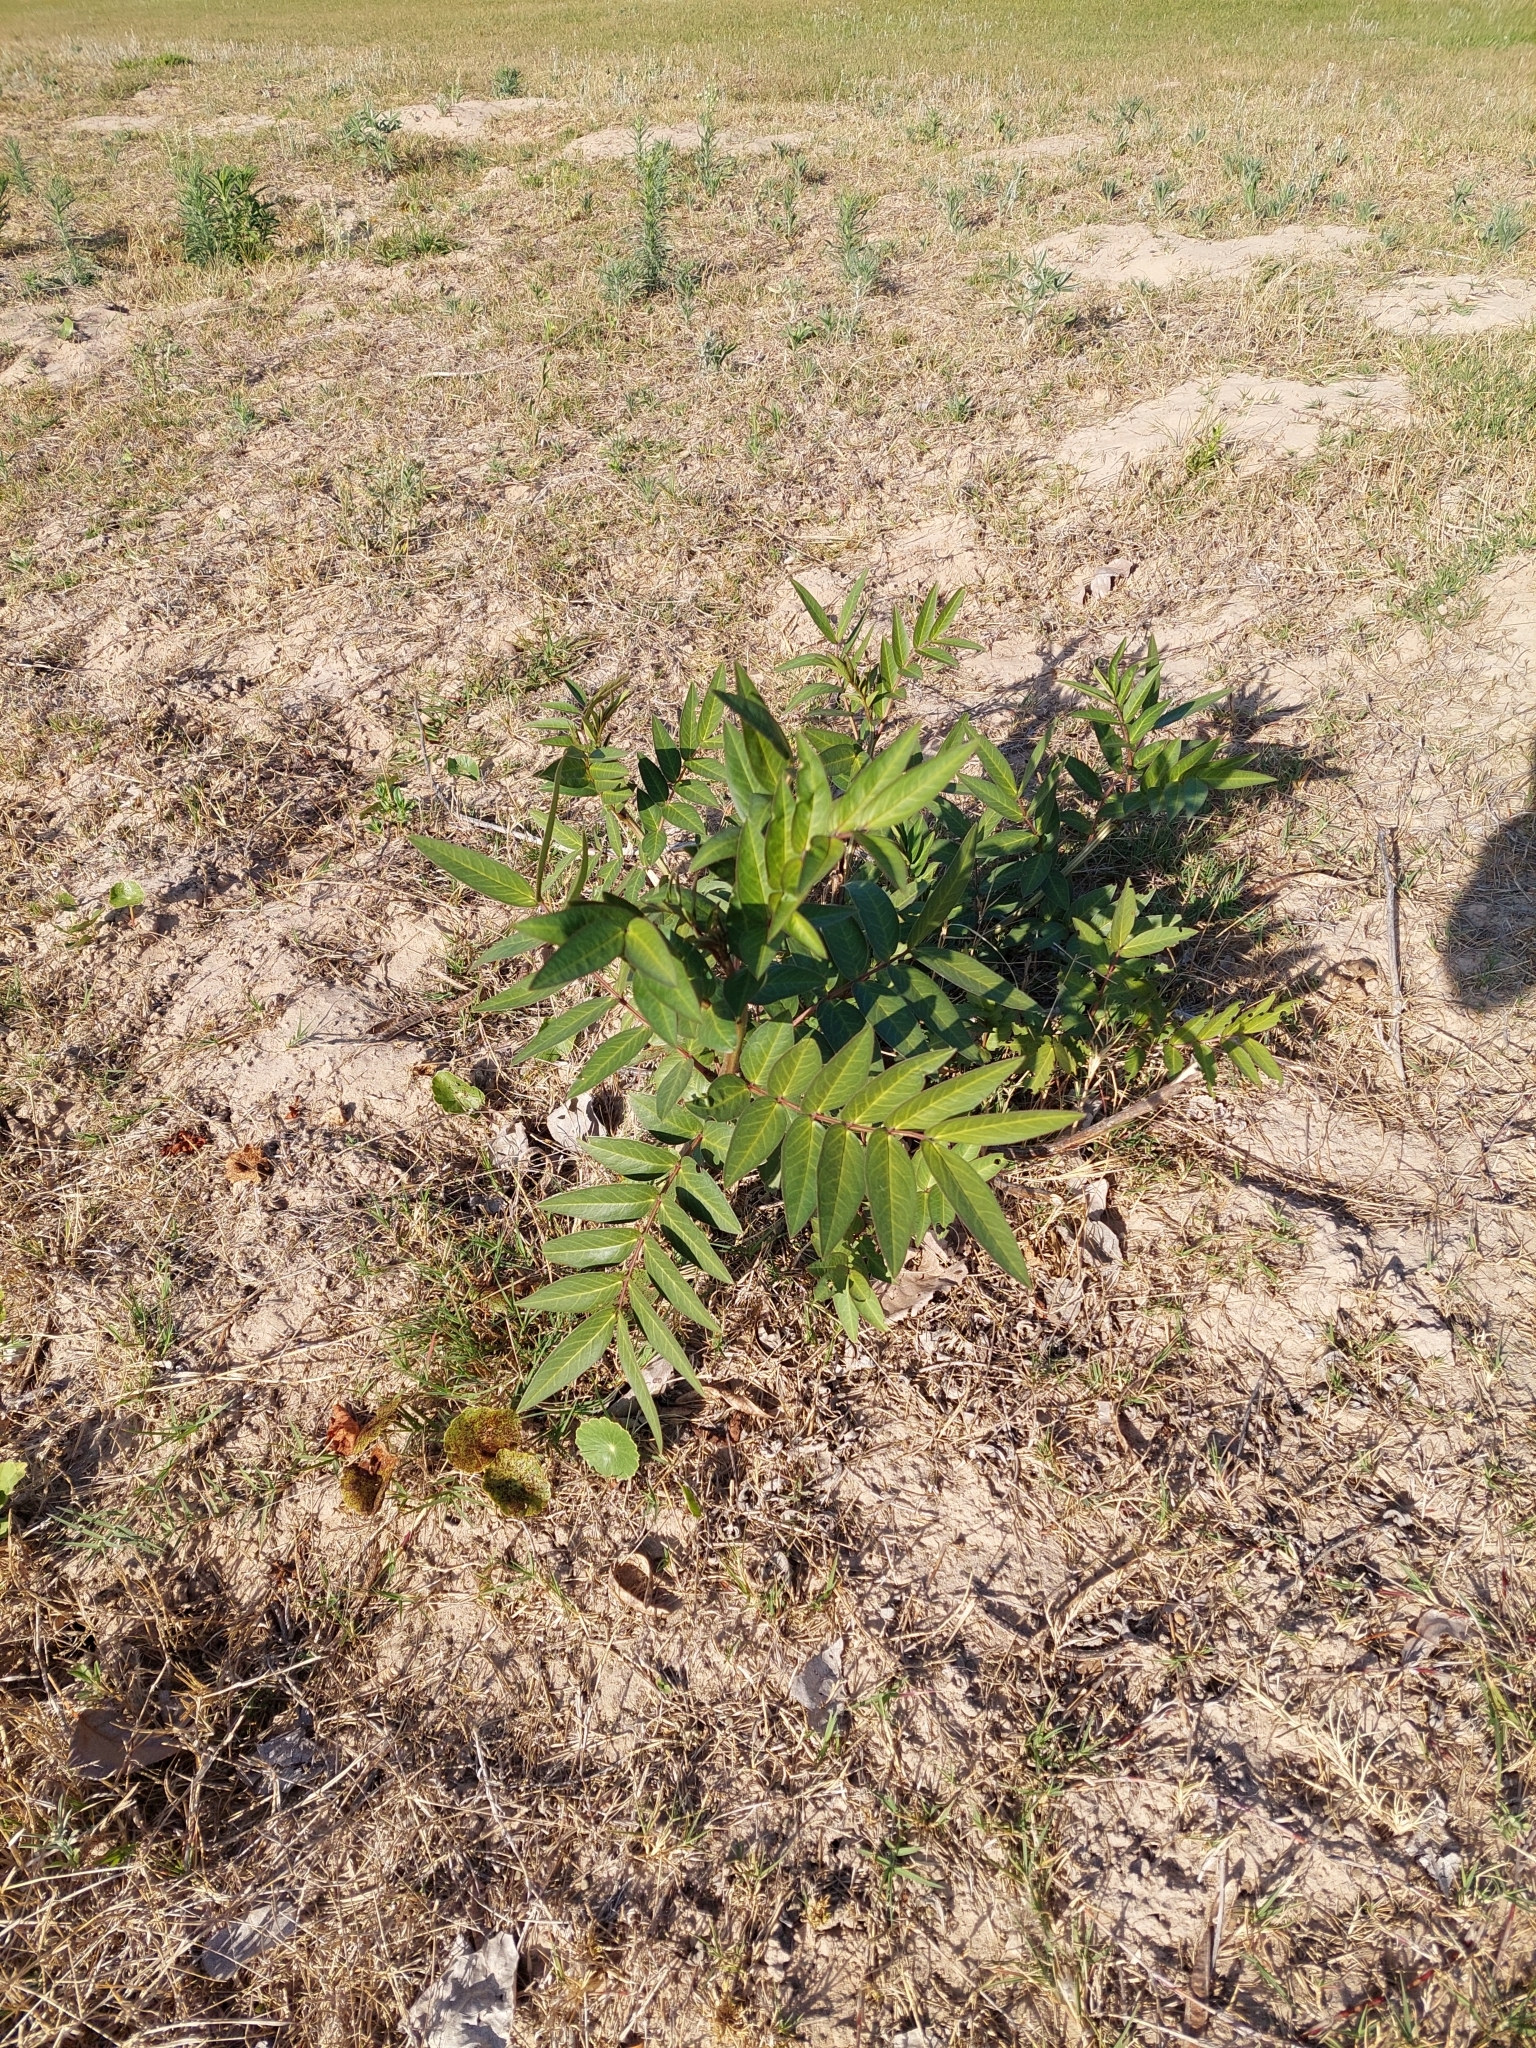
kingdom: Plantae
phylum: Tracheophyta
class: Magnoliopsida
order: Fabales
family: Fabaceae
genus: Senna
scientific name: Senna scabriuscula
